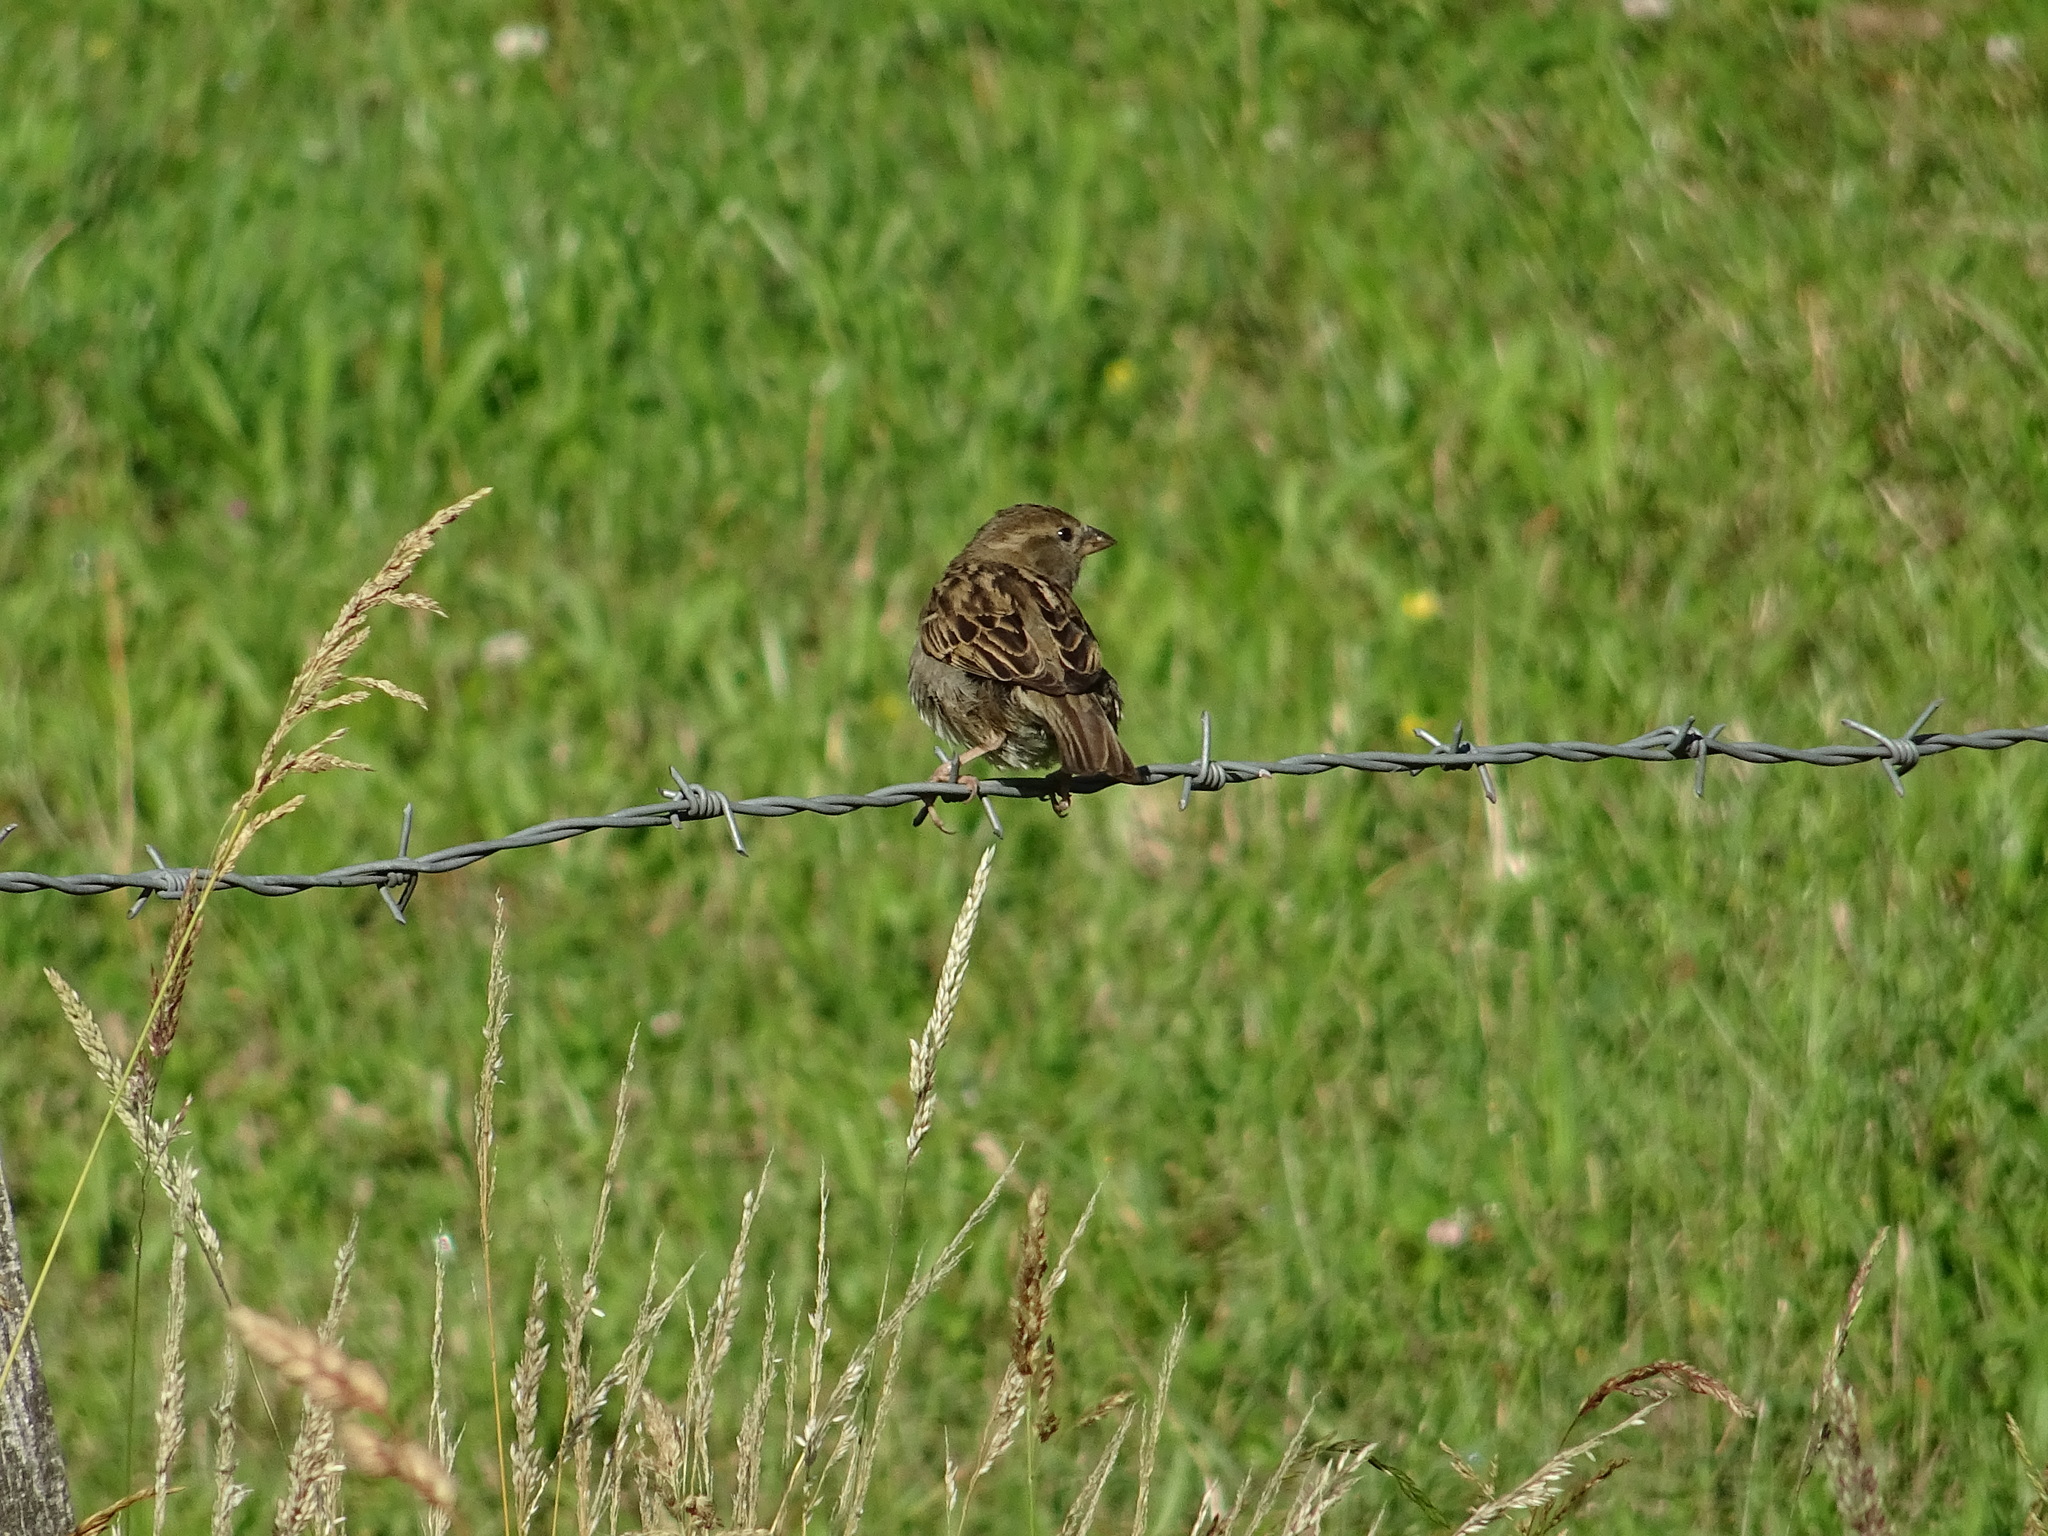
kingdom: Animalia
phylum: Chordata
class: Aves
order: Passeriformes
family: Passeridae
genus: Passer
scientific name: Passer domesticus
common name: House sparrow
